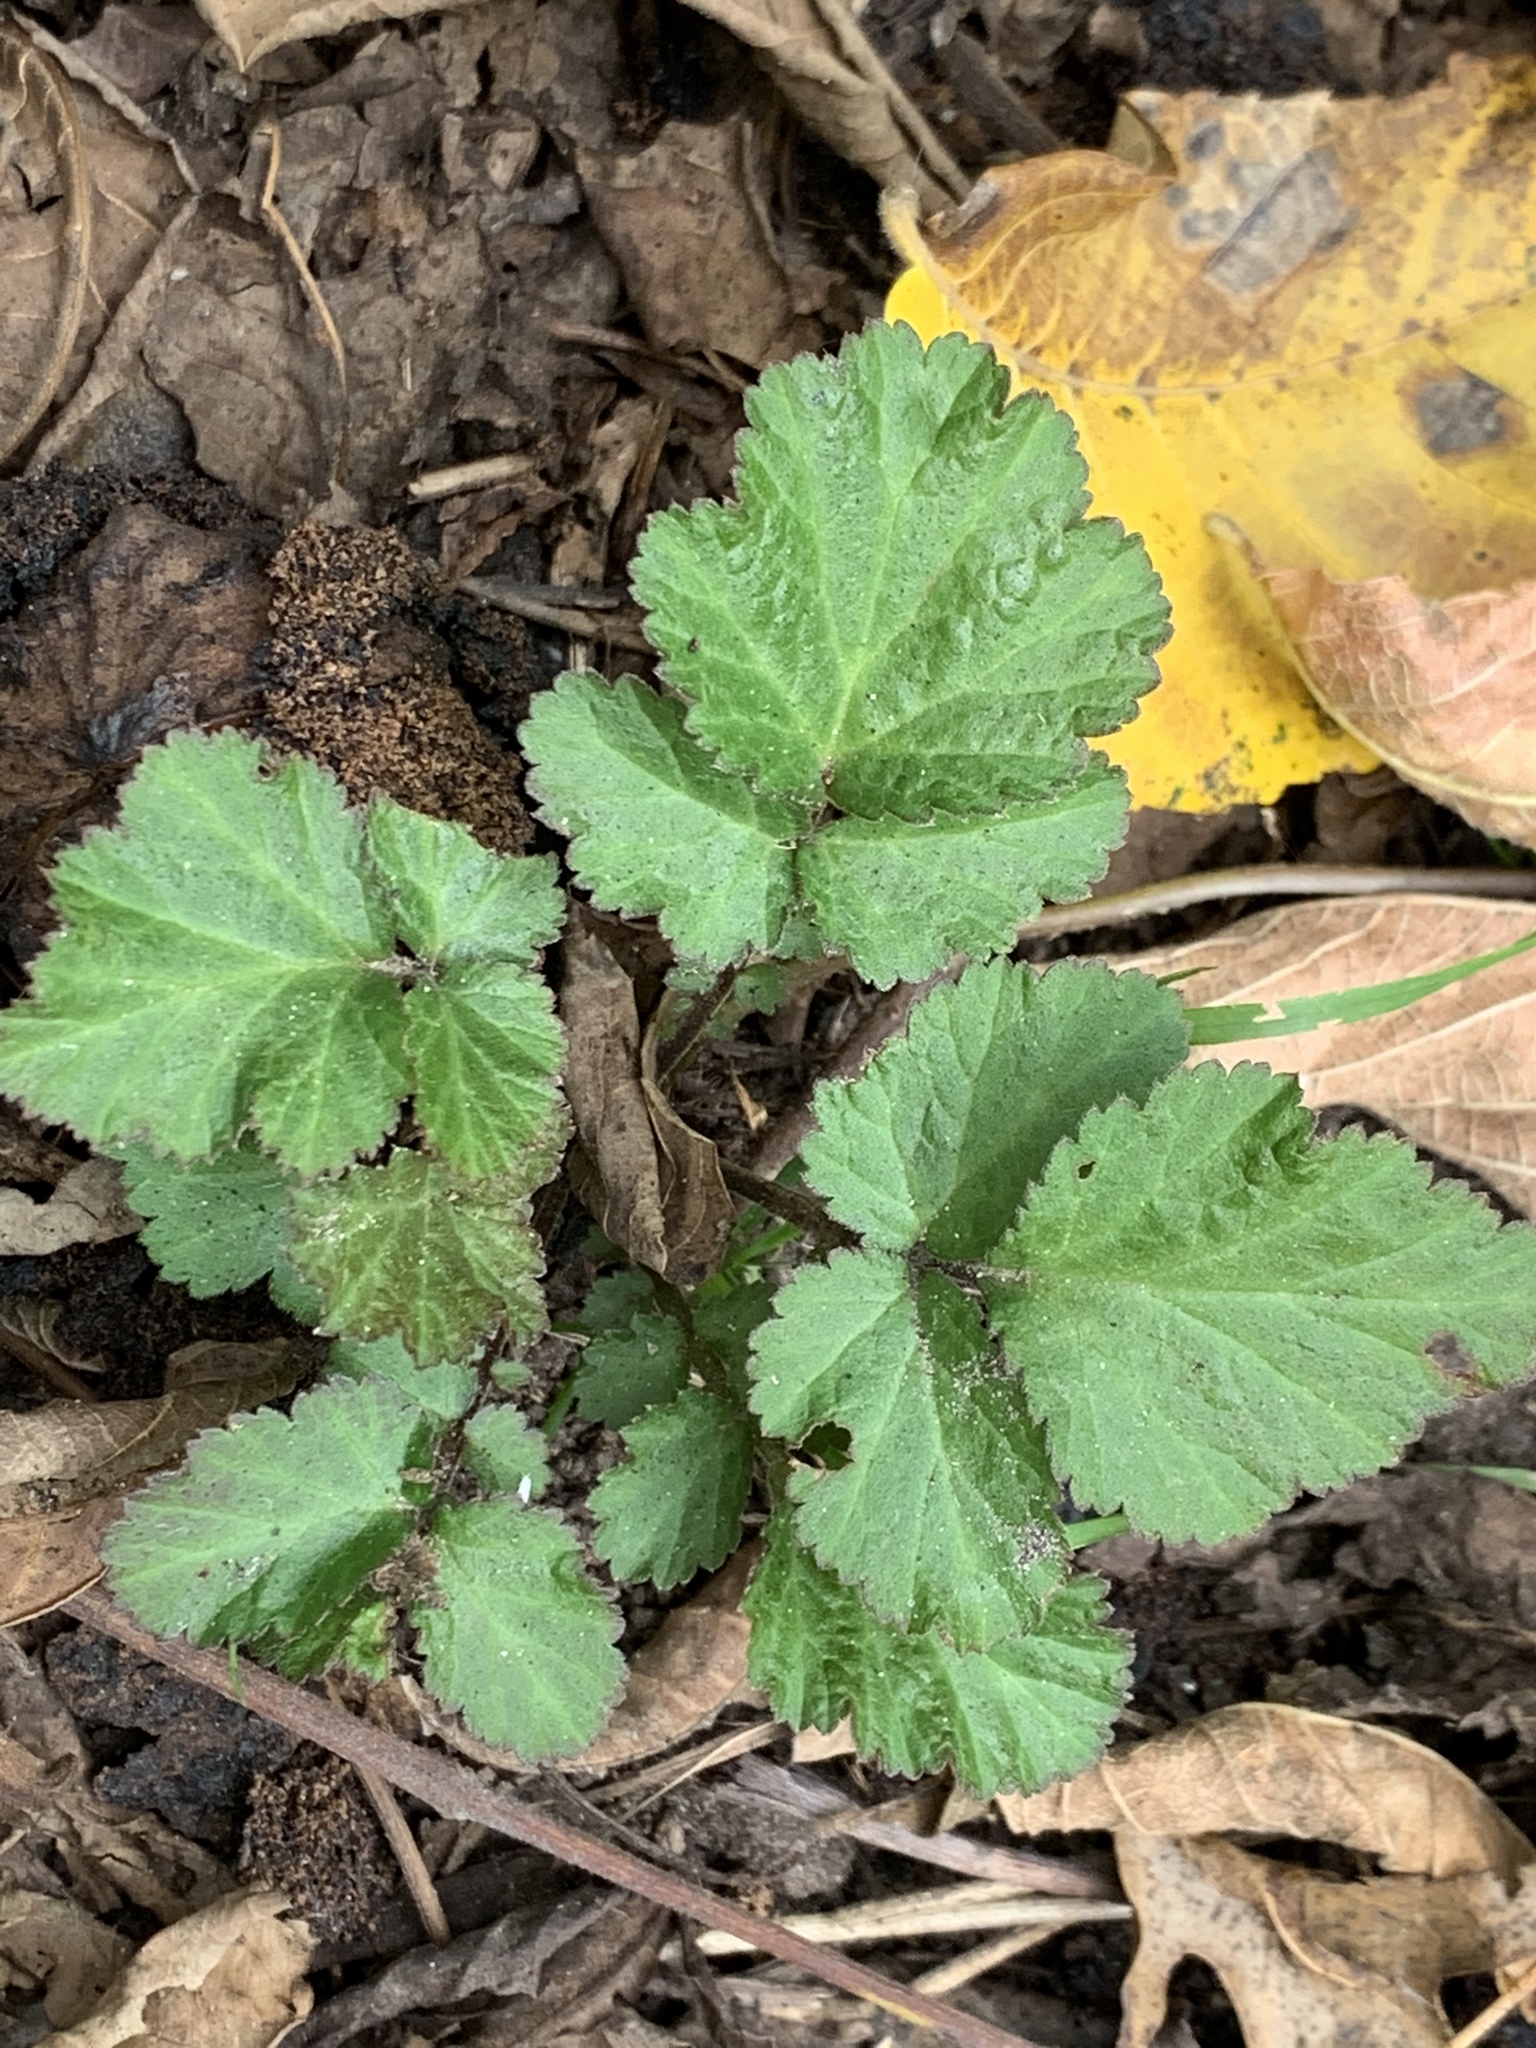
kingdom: Plantae
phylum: Tracheophyta
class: Magnoliopsida
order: Rosales
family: Rosaceae
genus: Geum
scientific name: Geum canadense
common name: White avens
